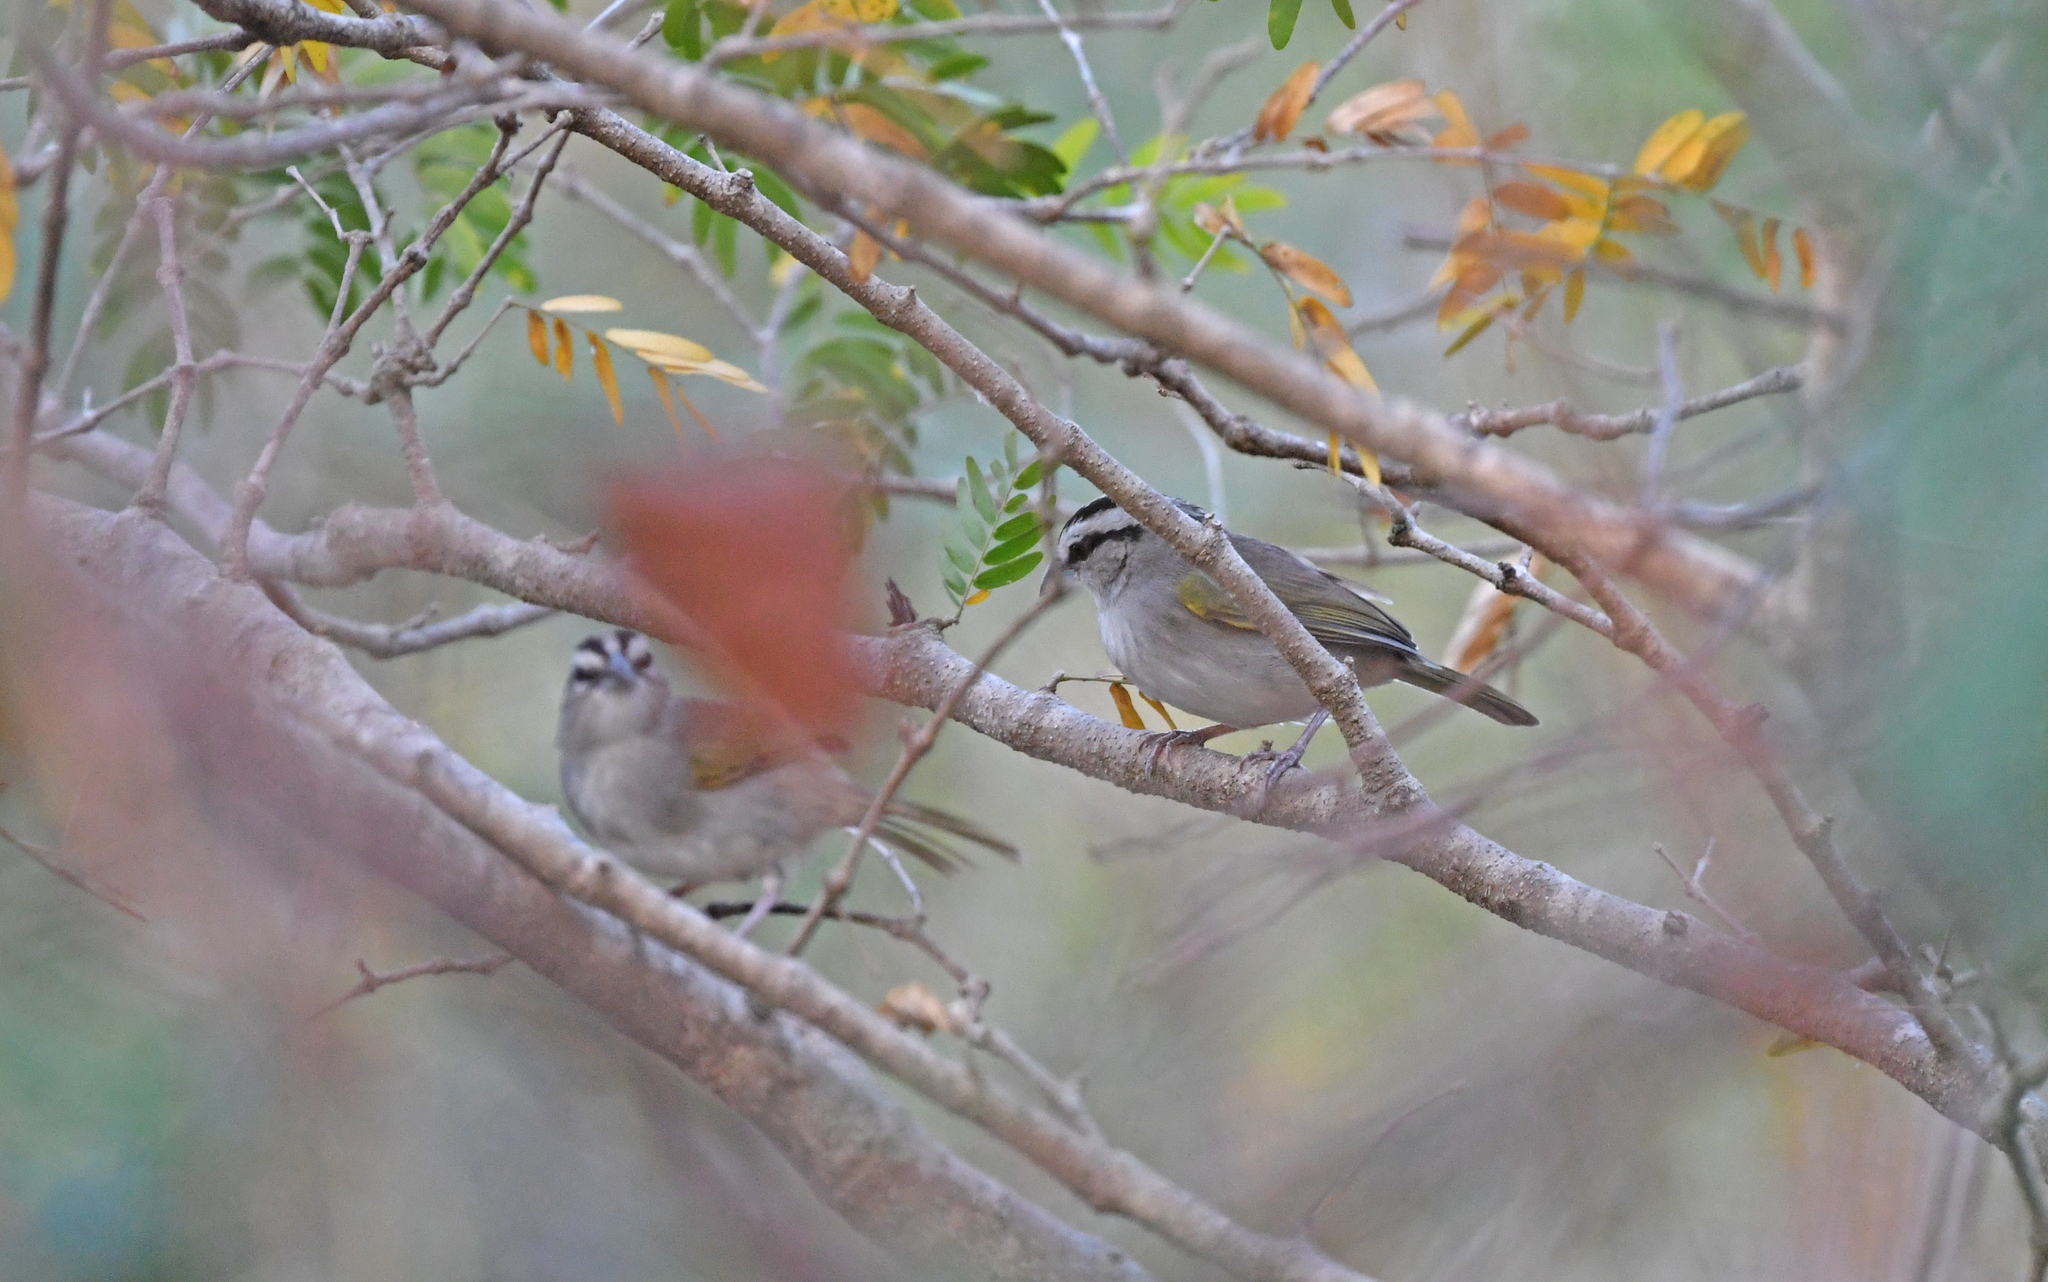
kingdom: Animalia
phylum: Chordata
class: Aves
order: Passeriformes
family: Passerellidae
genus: Arremonops
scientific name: Arremonops tocuyensis
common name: Tocuyo sparrow
